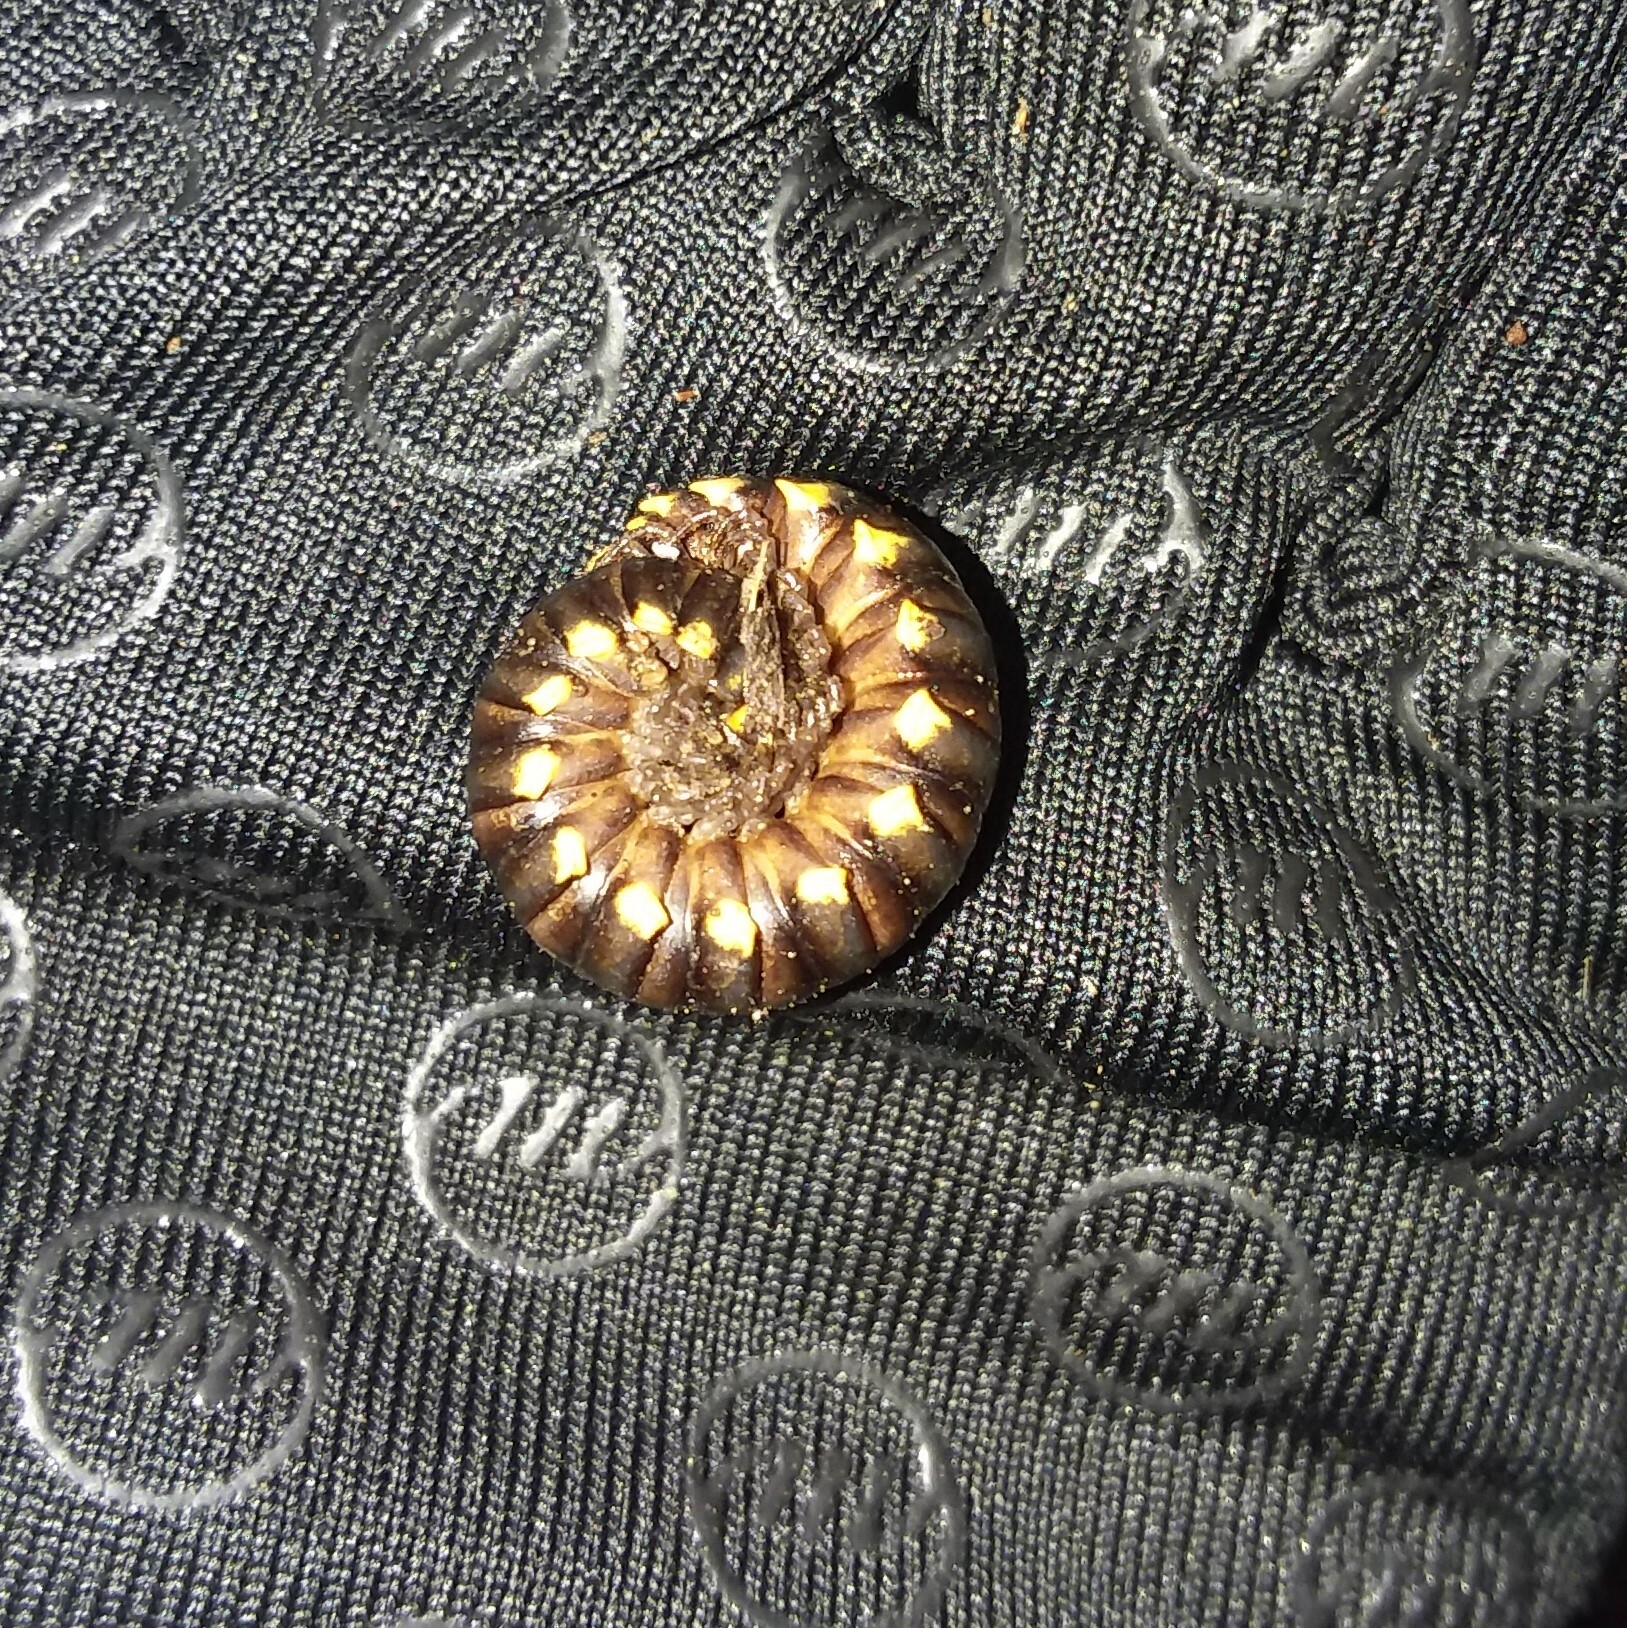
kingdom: Animalia
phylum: Arthropoda
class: Diplopoda
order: Polydesmida
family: Xystodesmidae
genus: Harpaphe
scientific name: Harpaphe haydeniana
